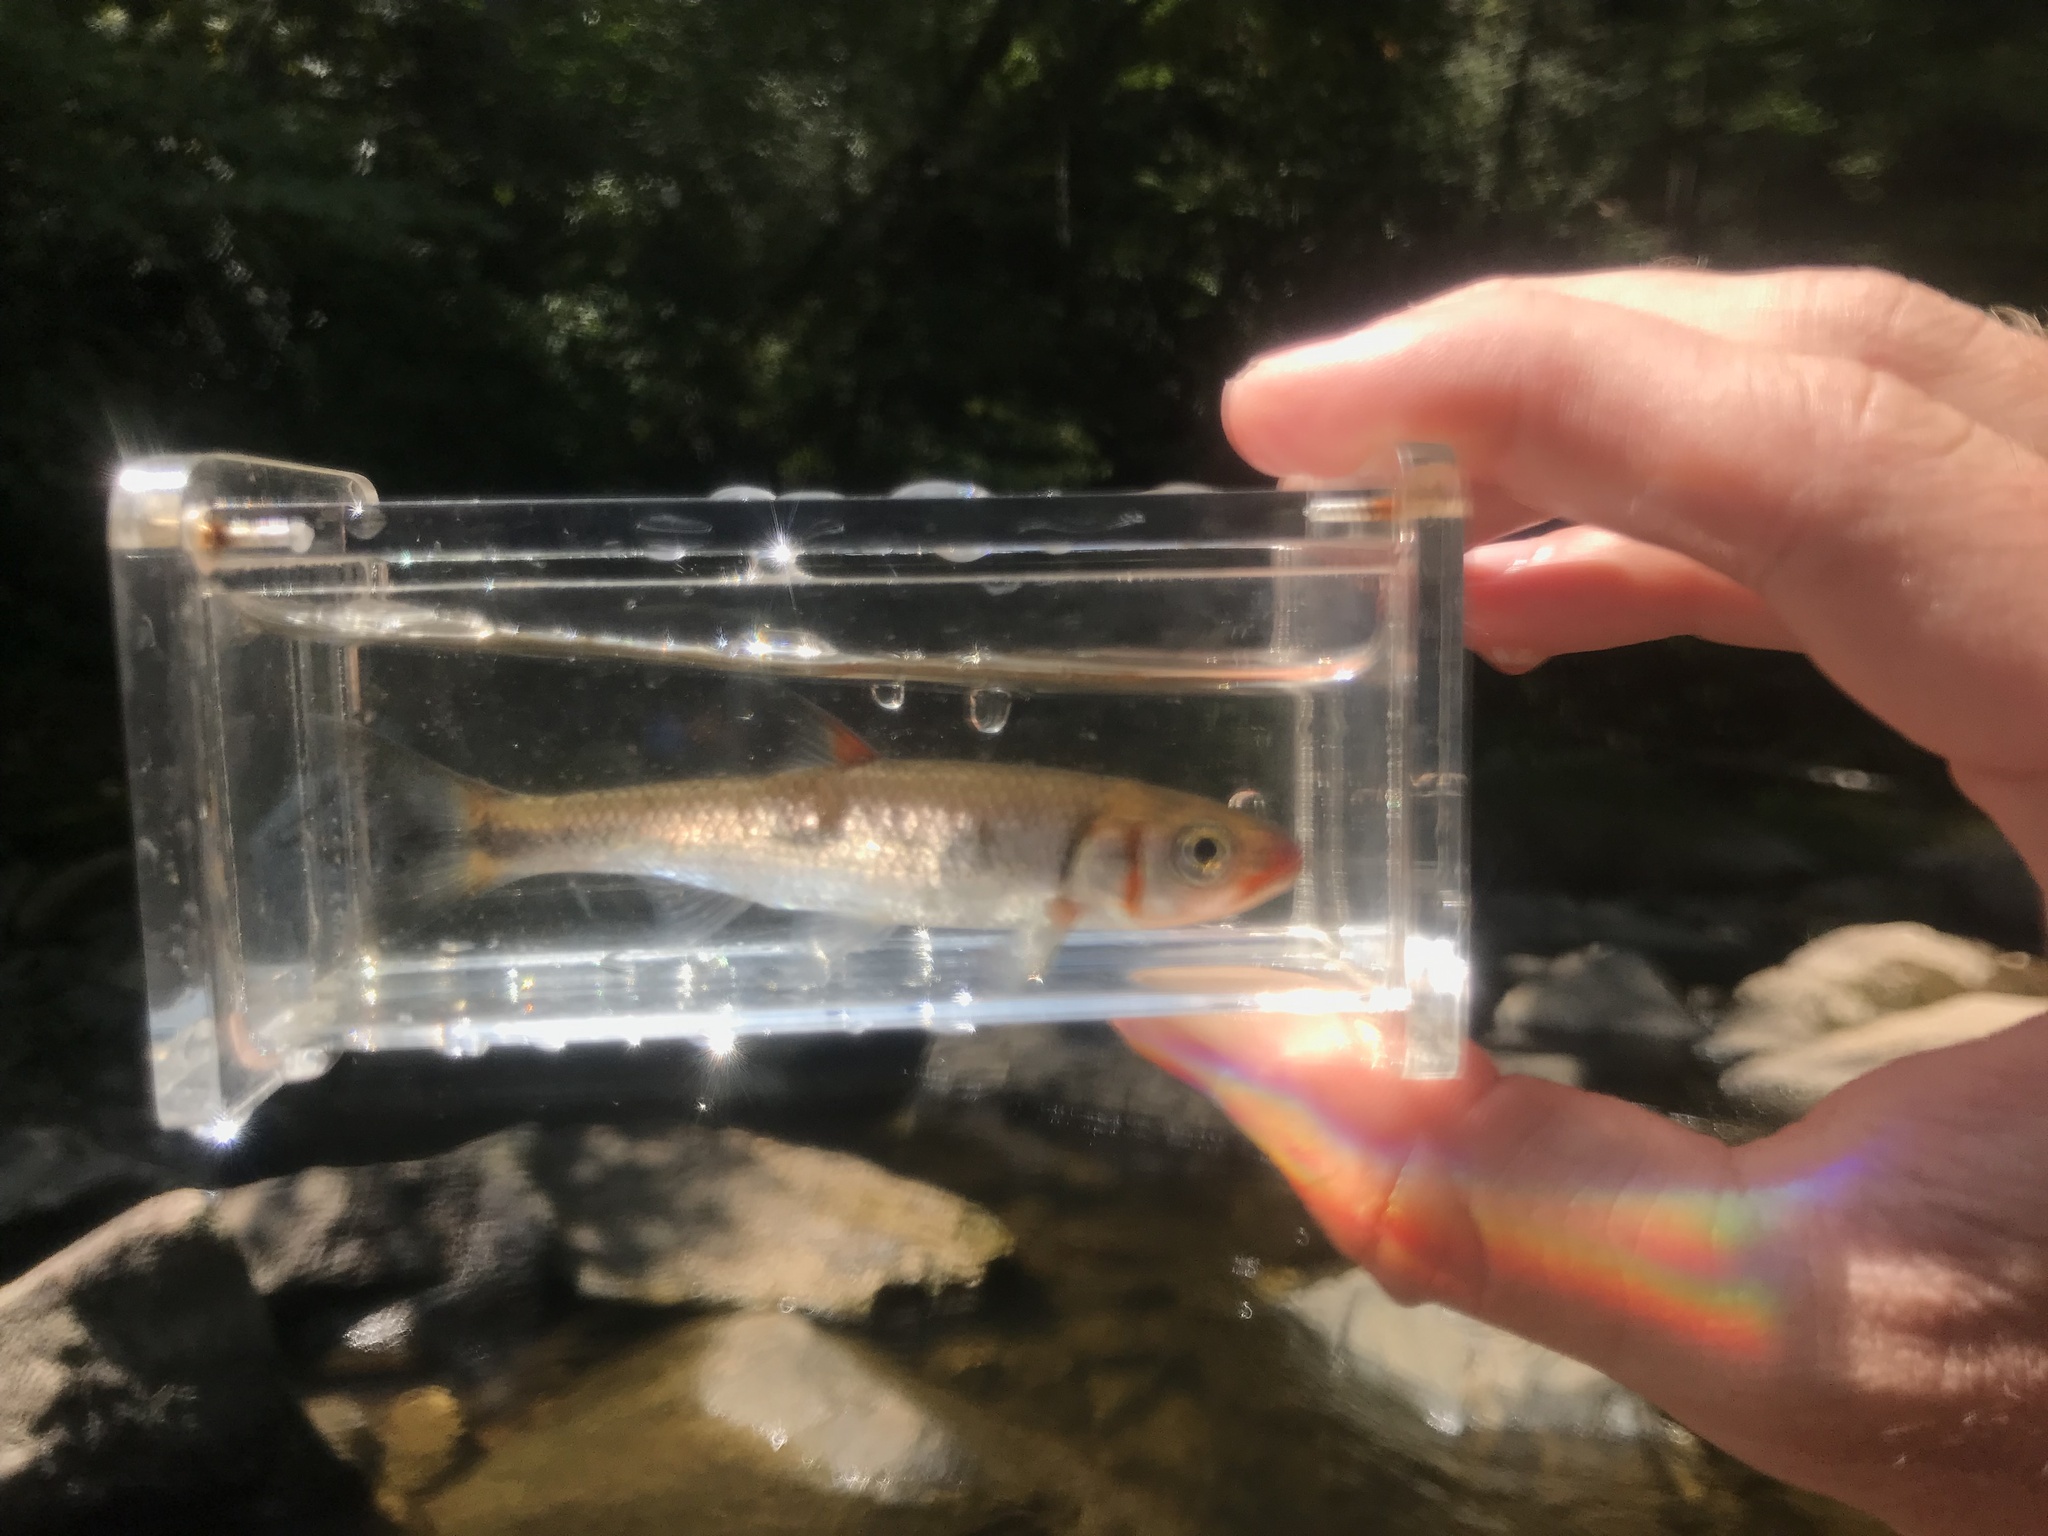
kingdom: Animalia
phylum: Chordata
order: Cypriniformes
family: Cyprinidae
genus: Luxilus
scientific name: Luxilus
